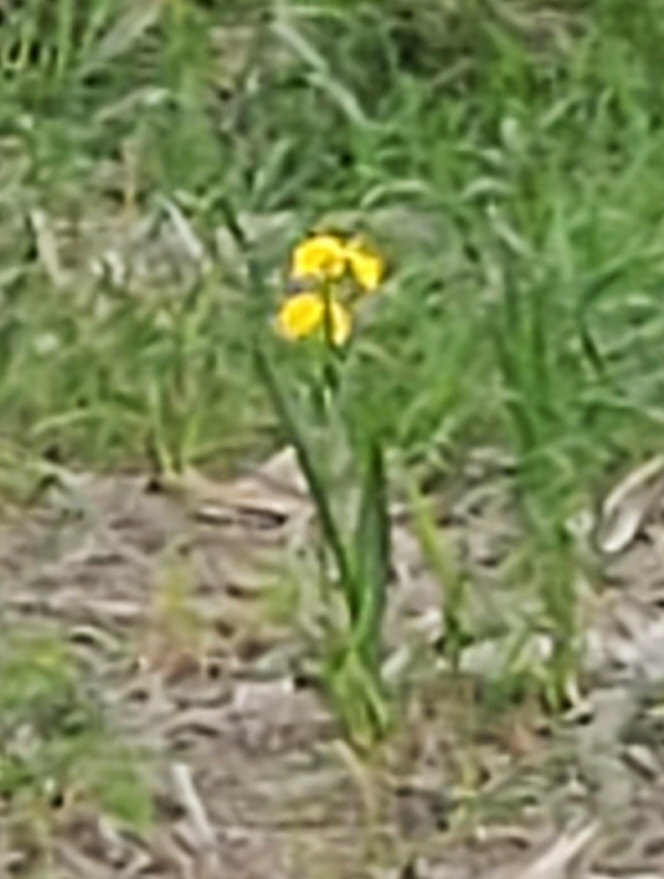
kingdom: Plantae
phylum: Tracheophyta
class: Liliopsida
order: Asparagales
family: Iridaceae
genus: Iris
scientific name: Iris pseudacorus
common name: Yellow flag
